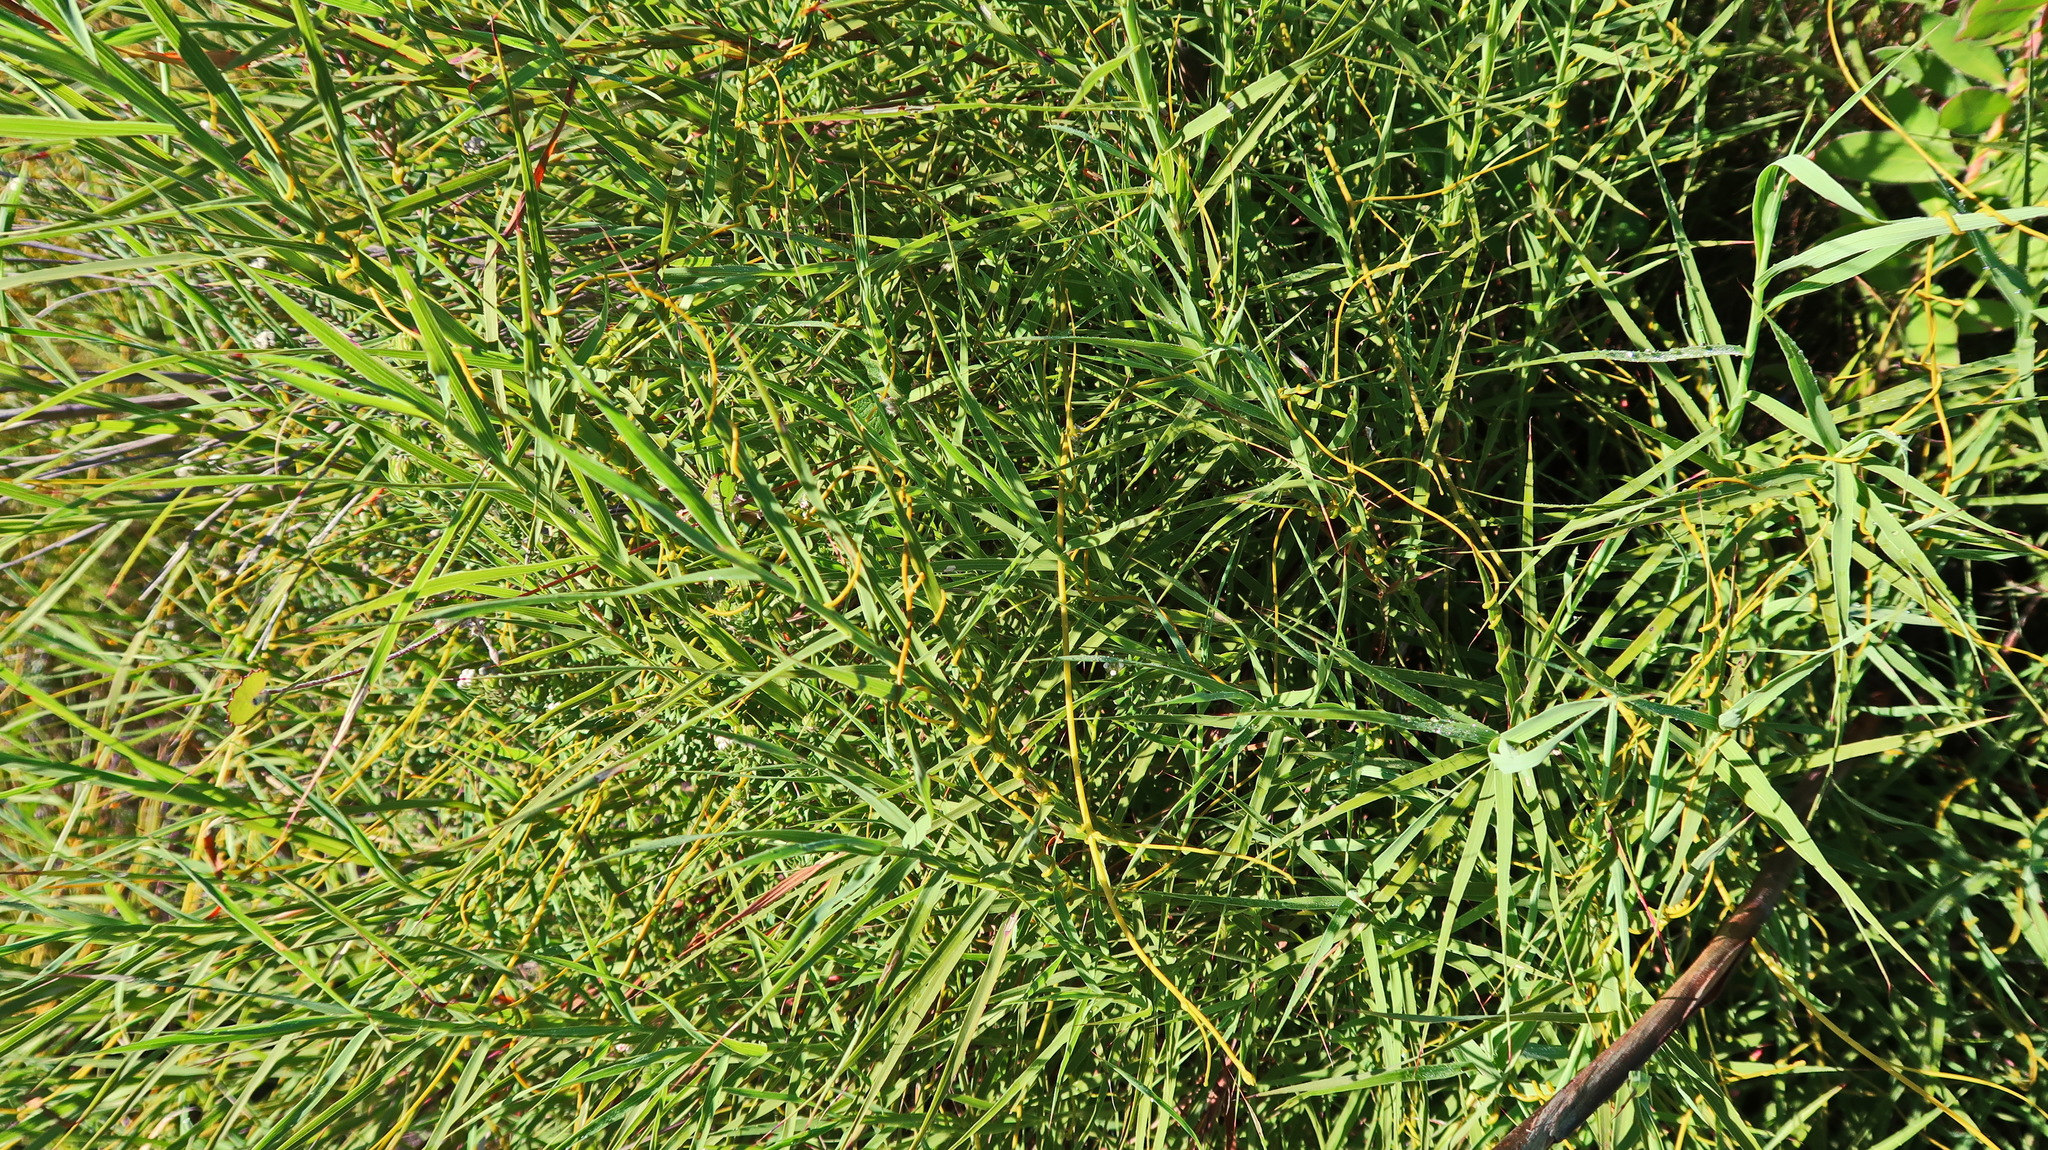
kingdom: Plantae
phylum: Tracheophyta
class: Magnoliopsida
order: Rosales
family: Rosaceae
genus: Cliffortia
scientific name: Cliffortia graminea
